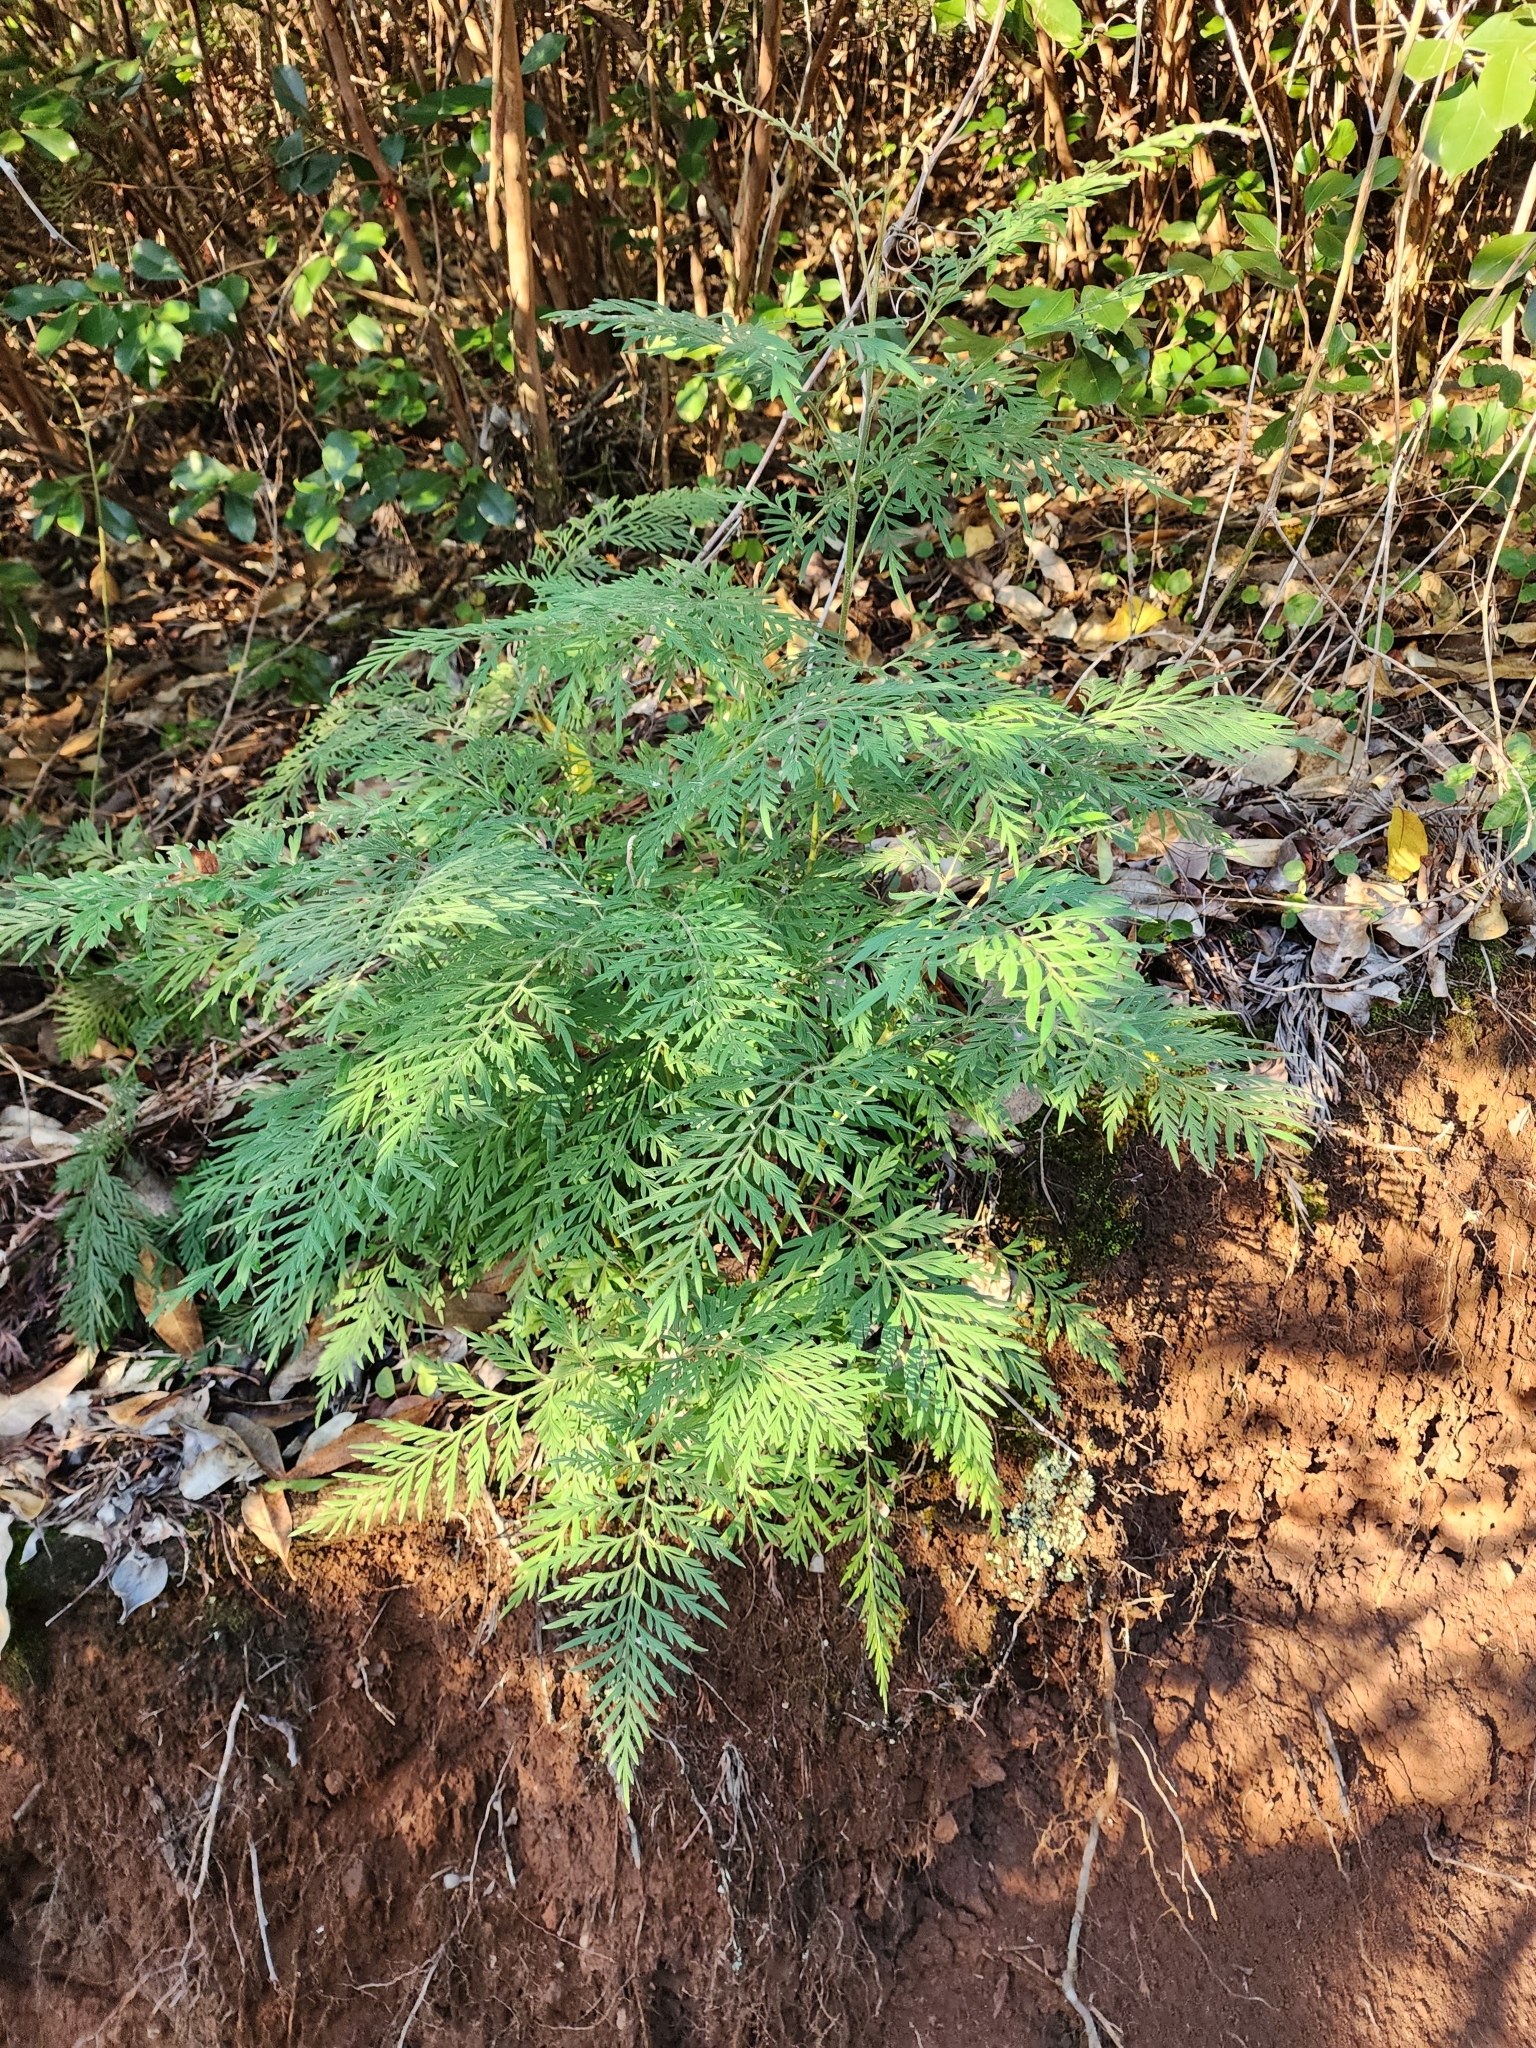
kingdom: Plantae
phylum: Tracheophyta
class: Magnoliopsida
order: Proteales
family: Proteaceae
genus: Grevillea
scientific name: Grevillea robusta
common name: Silkoak
